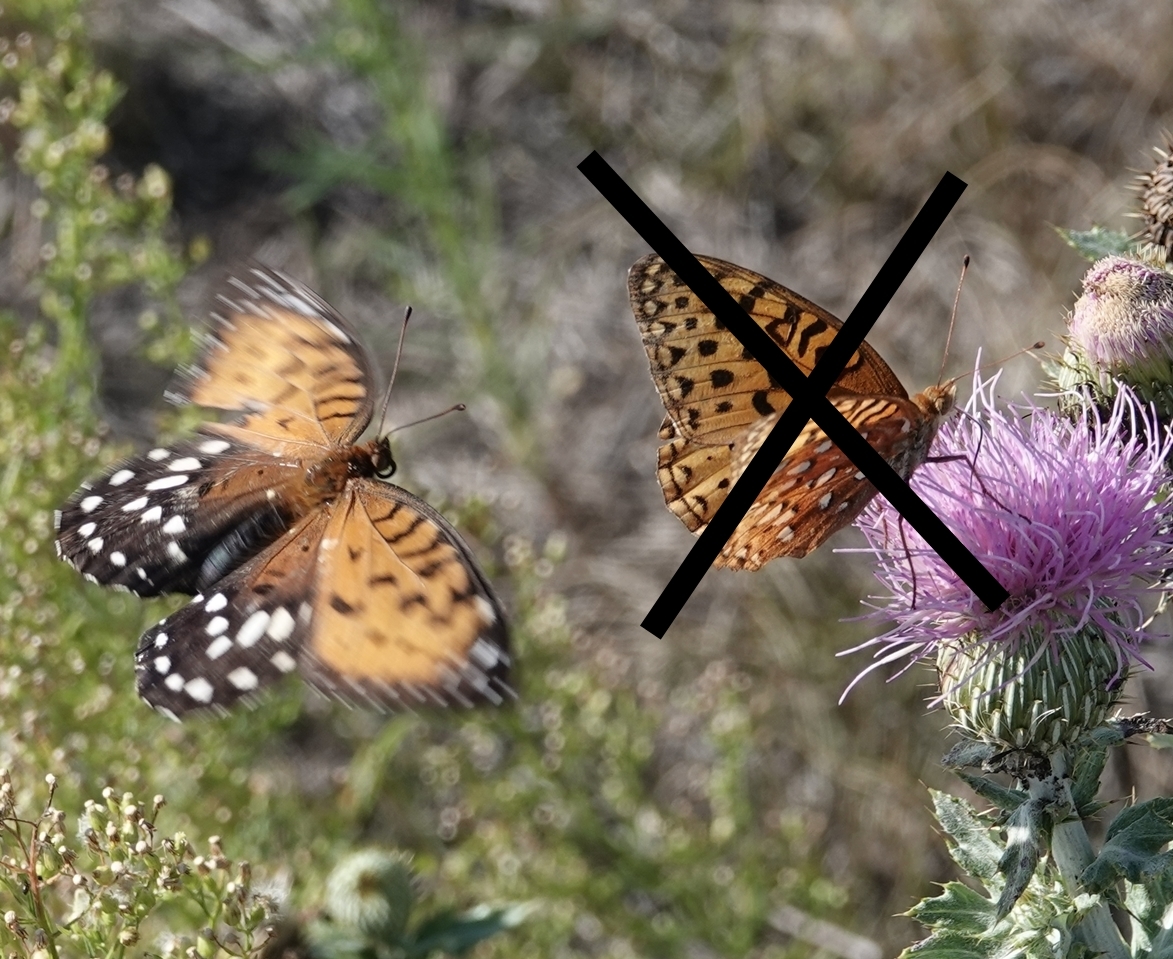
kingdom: Animalia
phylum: Arthropoda
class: Insecta
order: Lepidoptera
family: Nymphalidae
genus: Speyeria
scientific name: Speyeria idalia
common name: Regal fritillary
